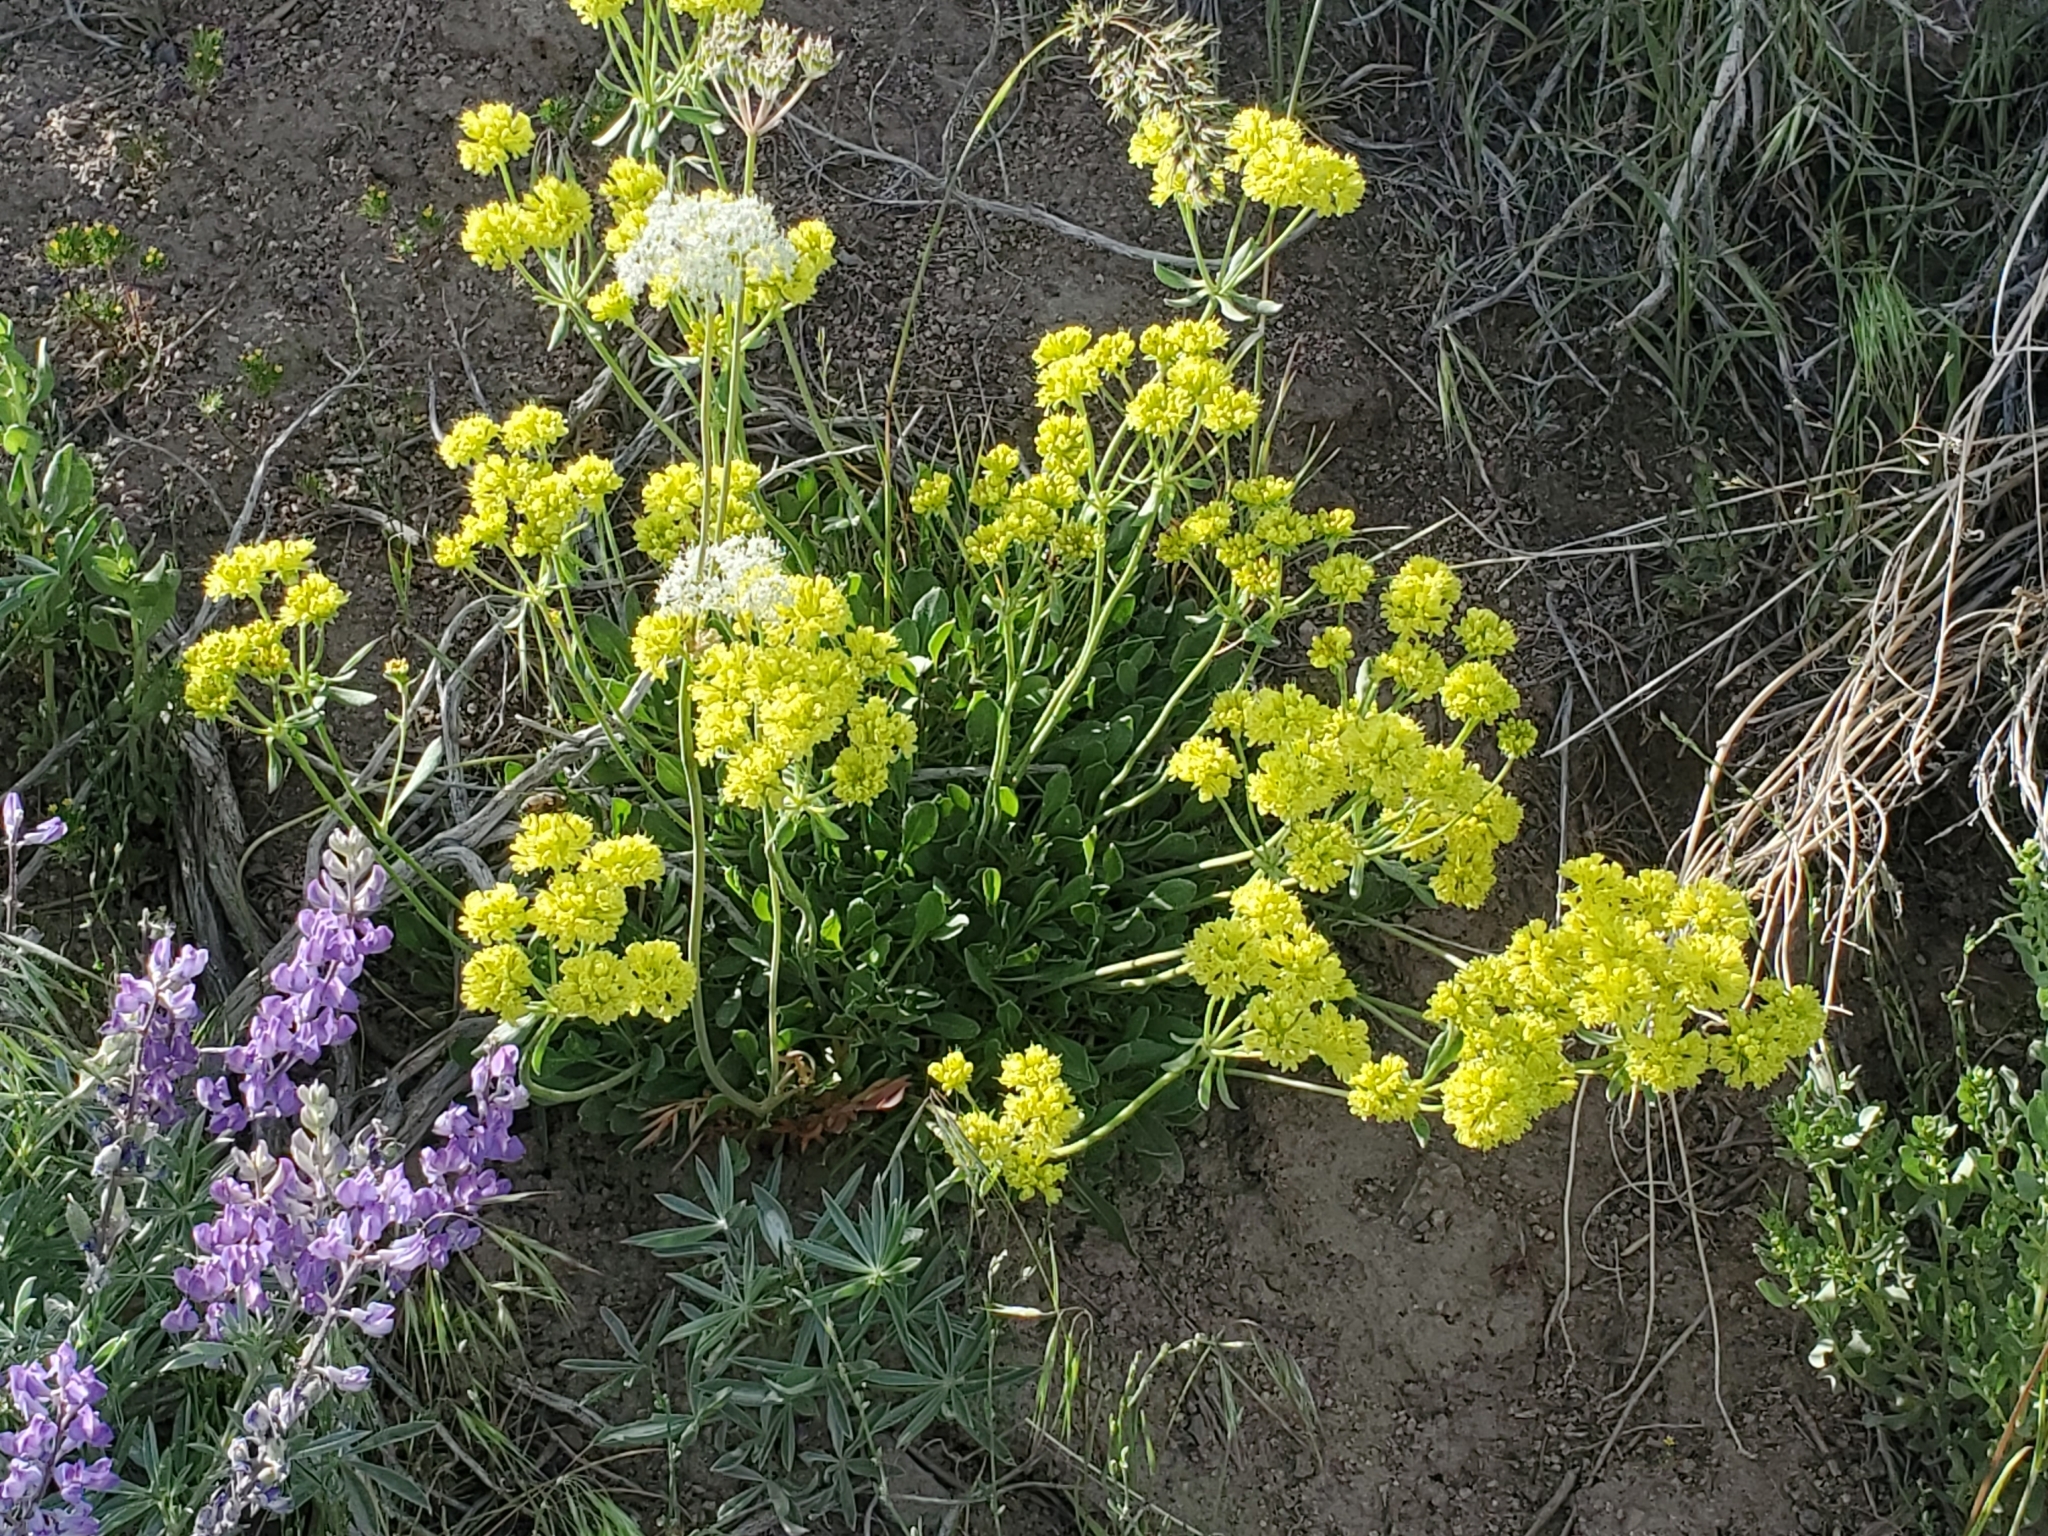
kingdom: Plantae
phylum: Tracheophyta
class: Magnoliopsida
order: Caryophyllales
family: Polygonaceae
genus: Eriogonum
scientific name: Eriogonum umbellatum
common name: Sulfur-buckwheat
